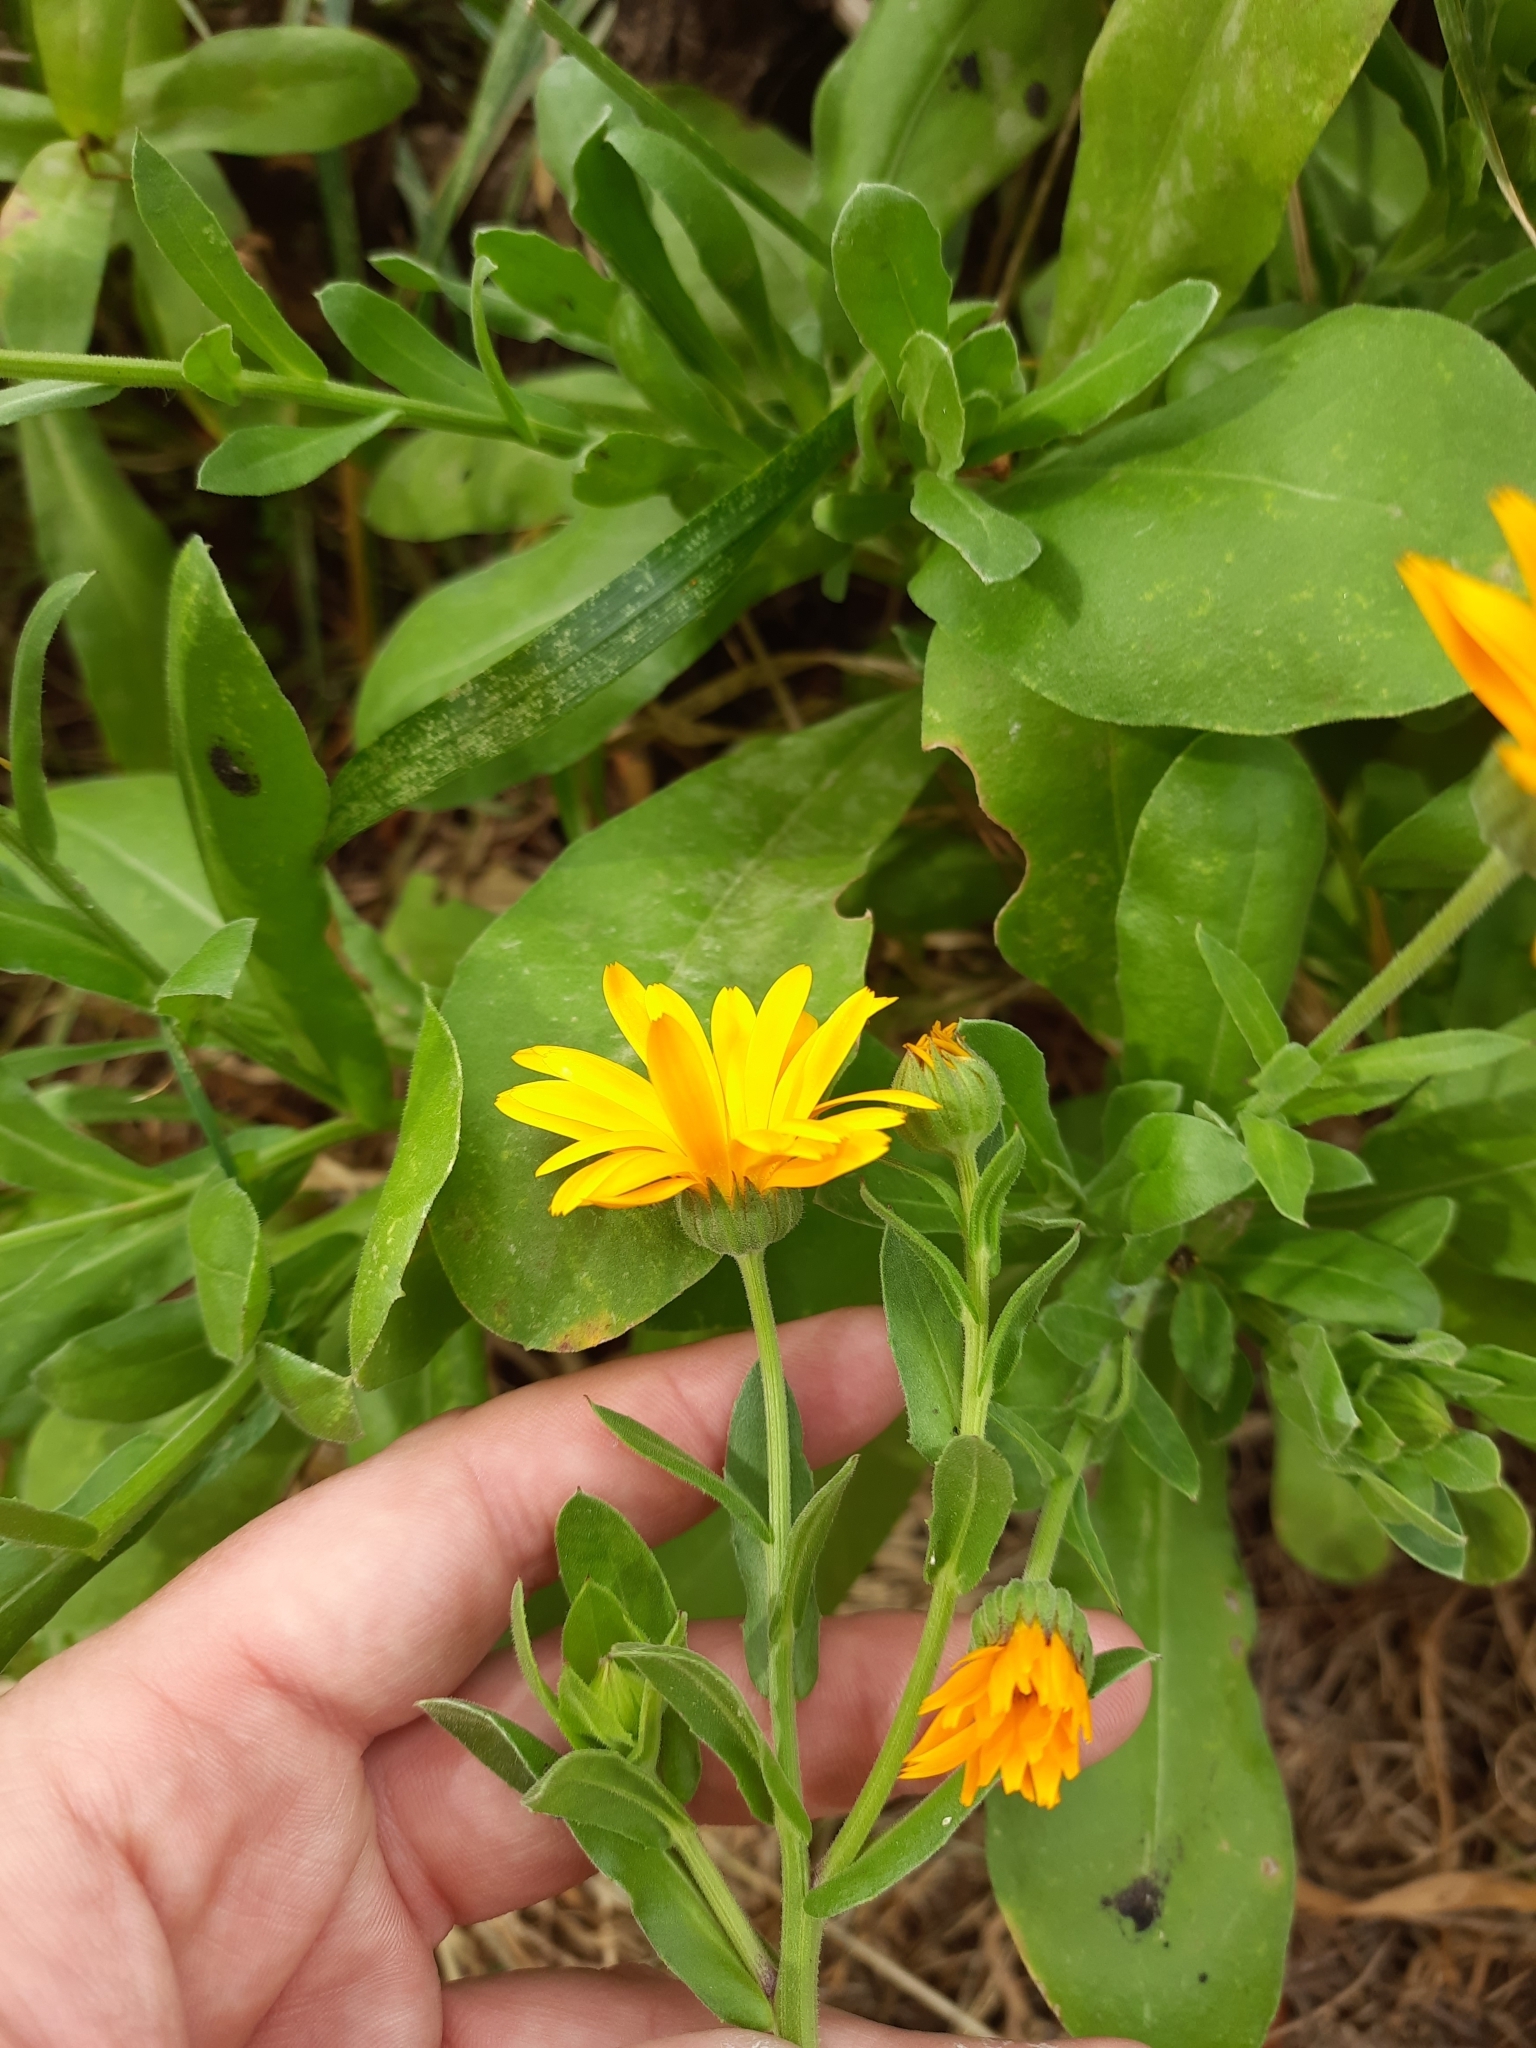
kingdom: Plantae
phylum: Tracheophyta
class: Magnoliopsida
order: Asterales
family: Asteraceae
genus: Calendula
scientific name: Calendula officinalis
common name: Pot marigold
